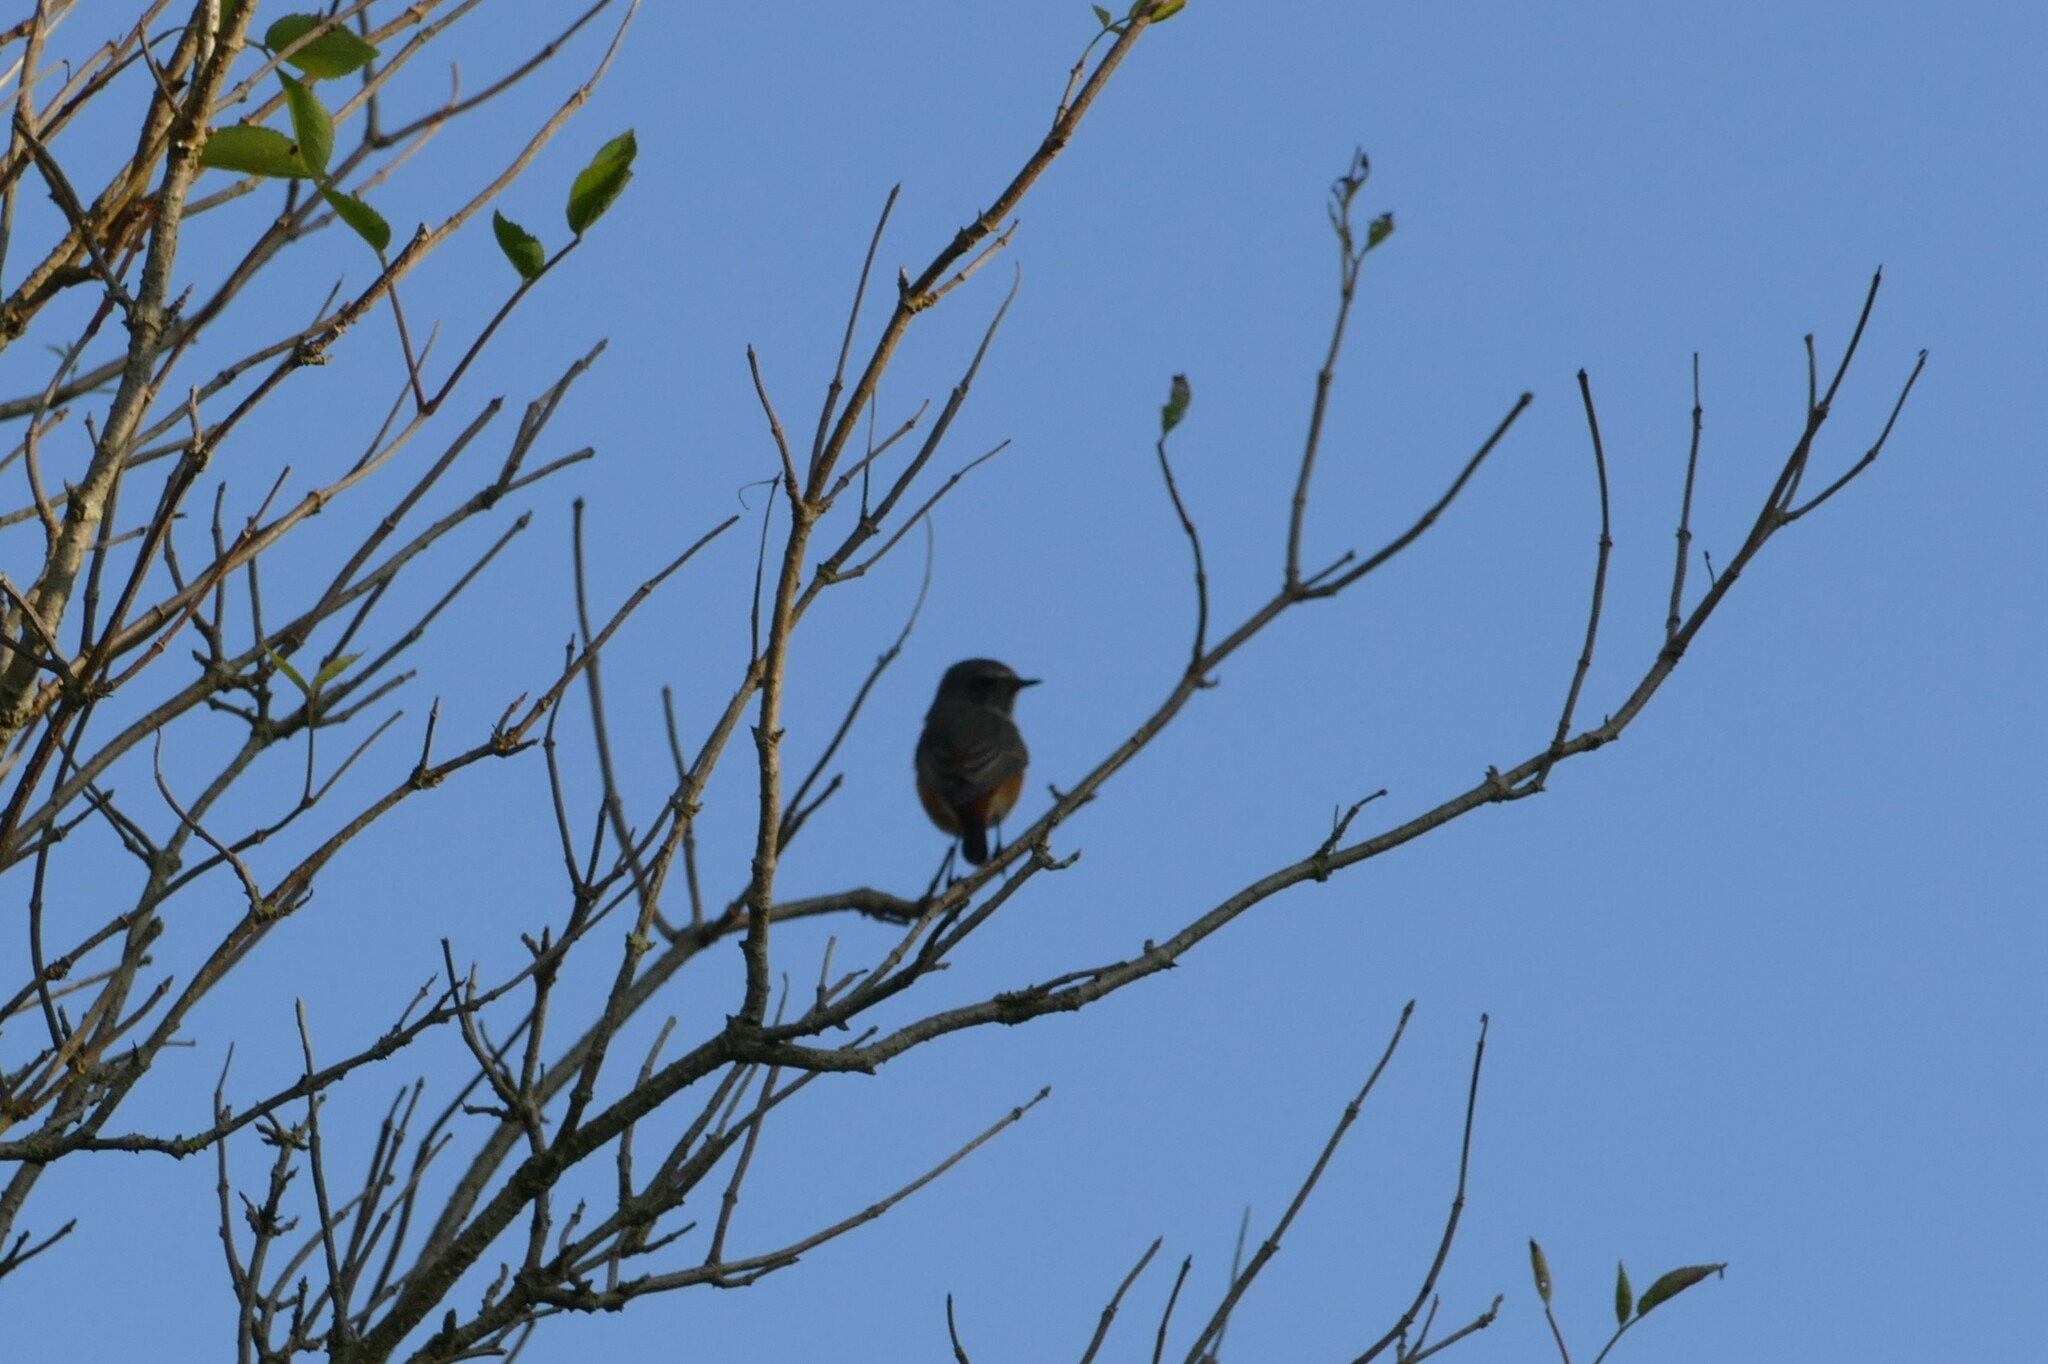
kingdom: Animalia
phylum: Chordata
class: Aves
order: Passeriformes
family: Muscicapidae
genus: Phoenicurus
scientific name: Phoenicurus ochruros
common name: Black redstart
